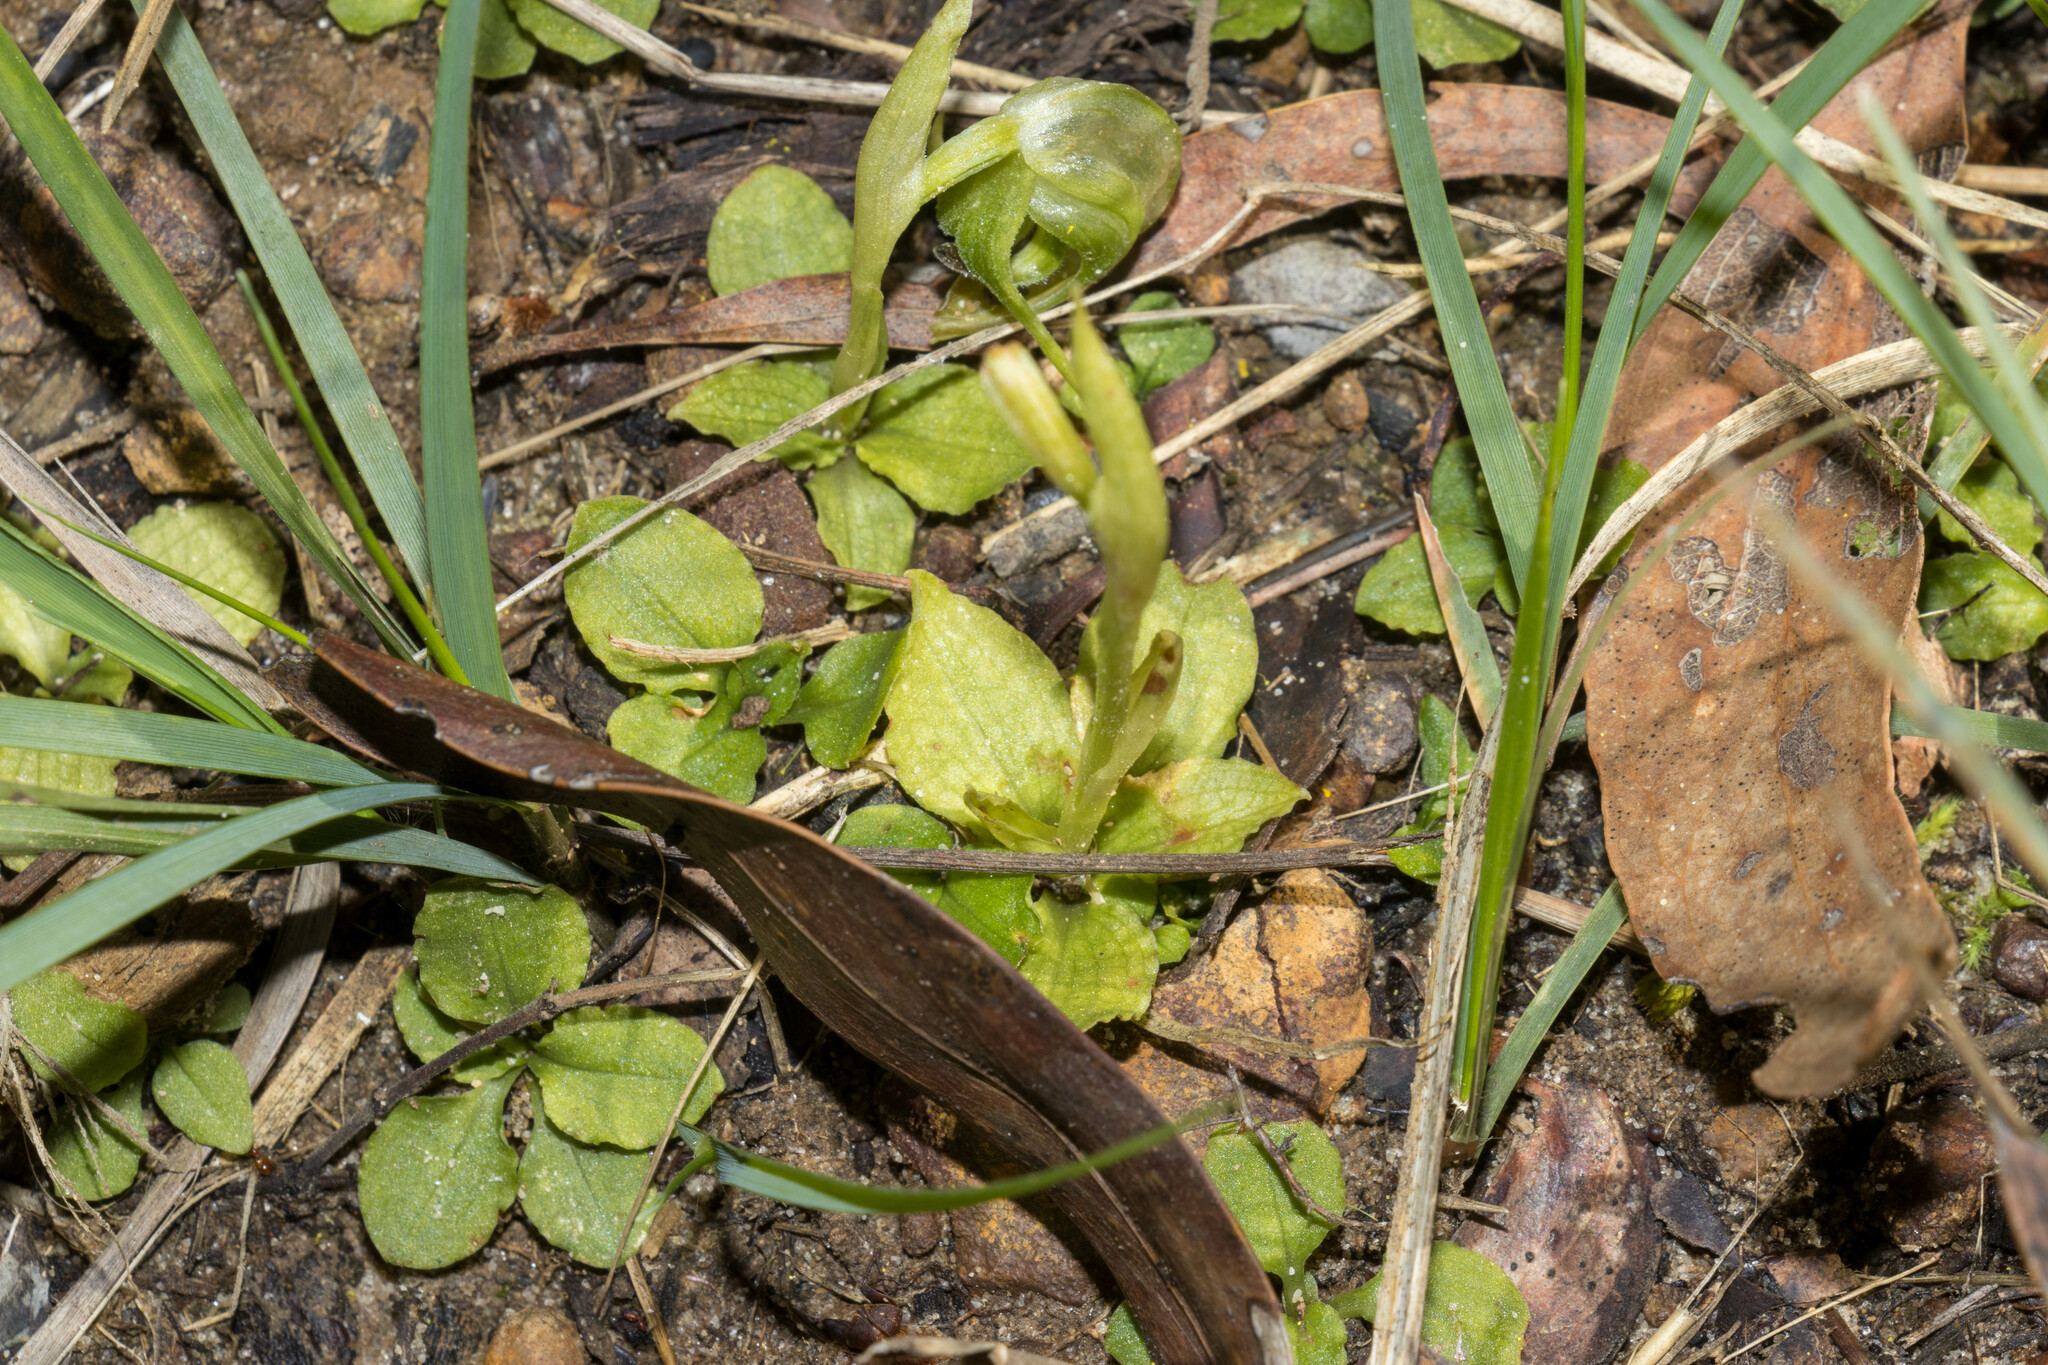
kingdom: Plantae
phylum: Tracheophyta
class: Liliopsida
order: Asparagales
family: Orchidaceae
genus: Pterostylis
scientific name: Pterostylis nutans
